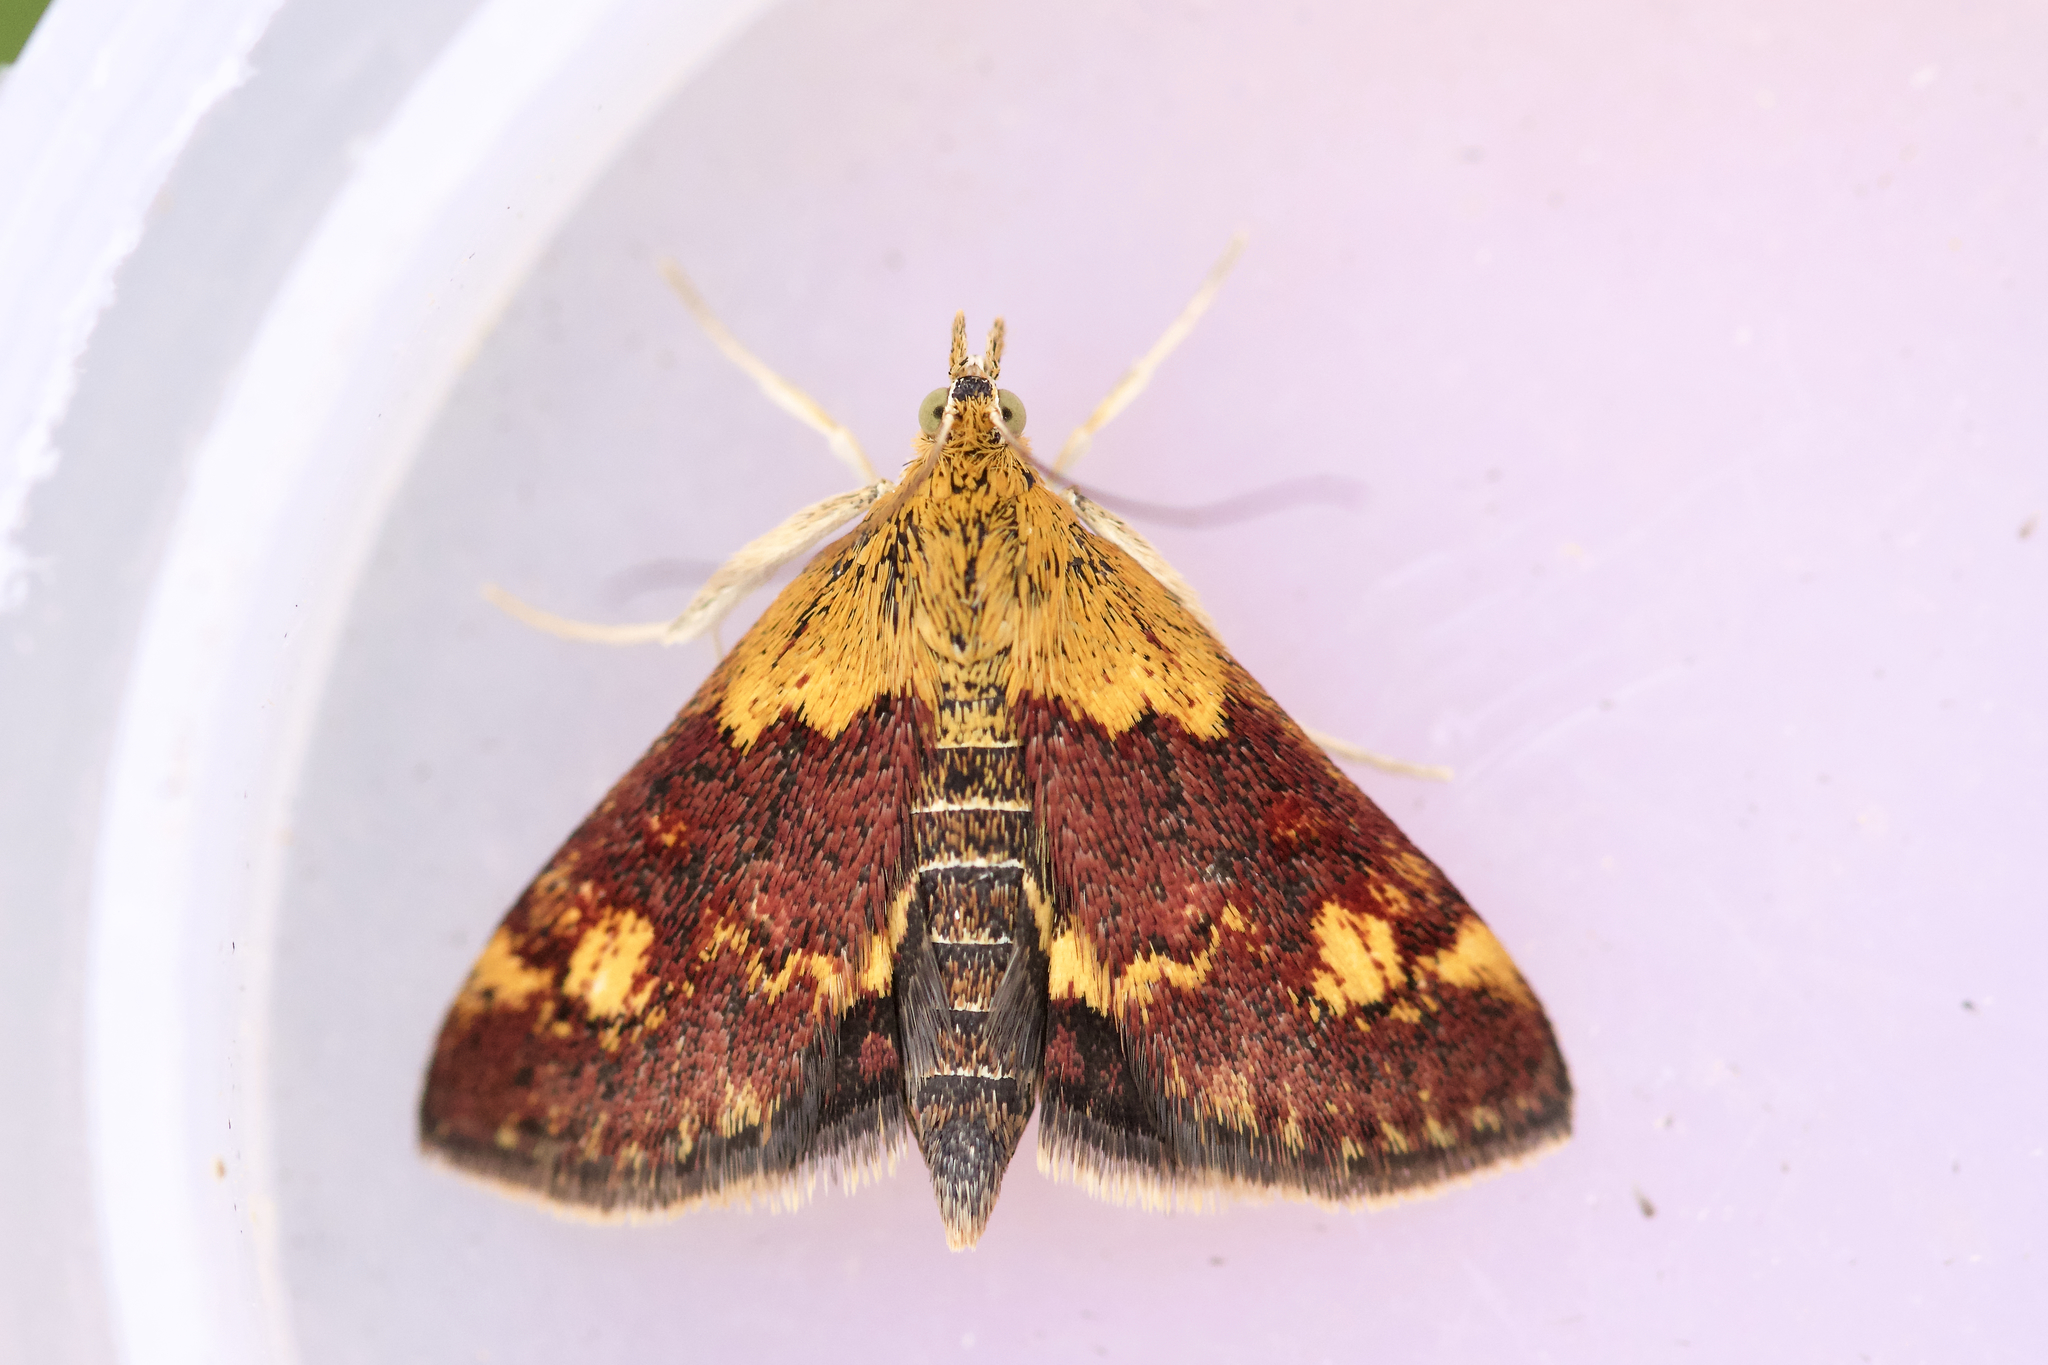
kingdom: Animalia
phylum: Arthropoda
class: Insecta
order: Lepidoptera
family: Crambidae
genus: Pyrausta
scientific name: Pyrausta orphisalis
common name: Orange mint moth
